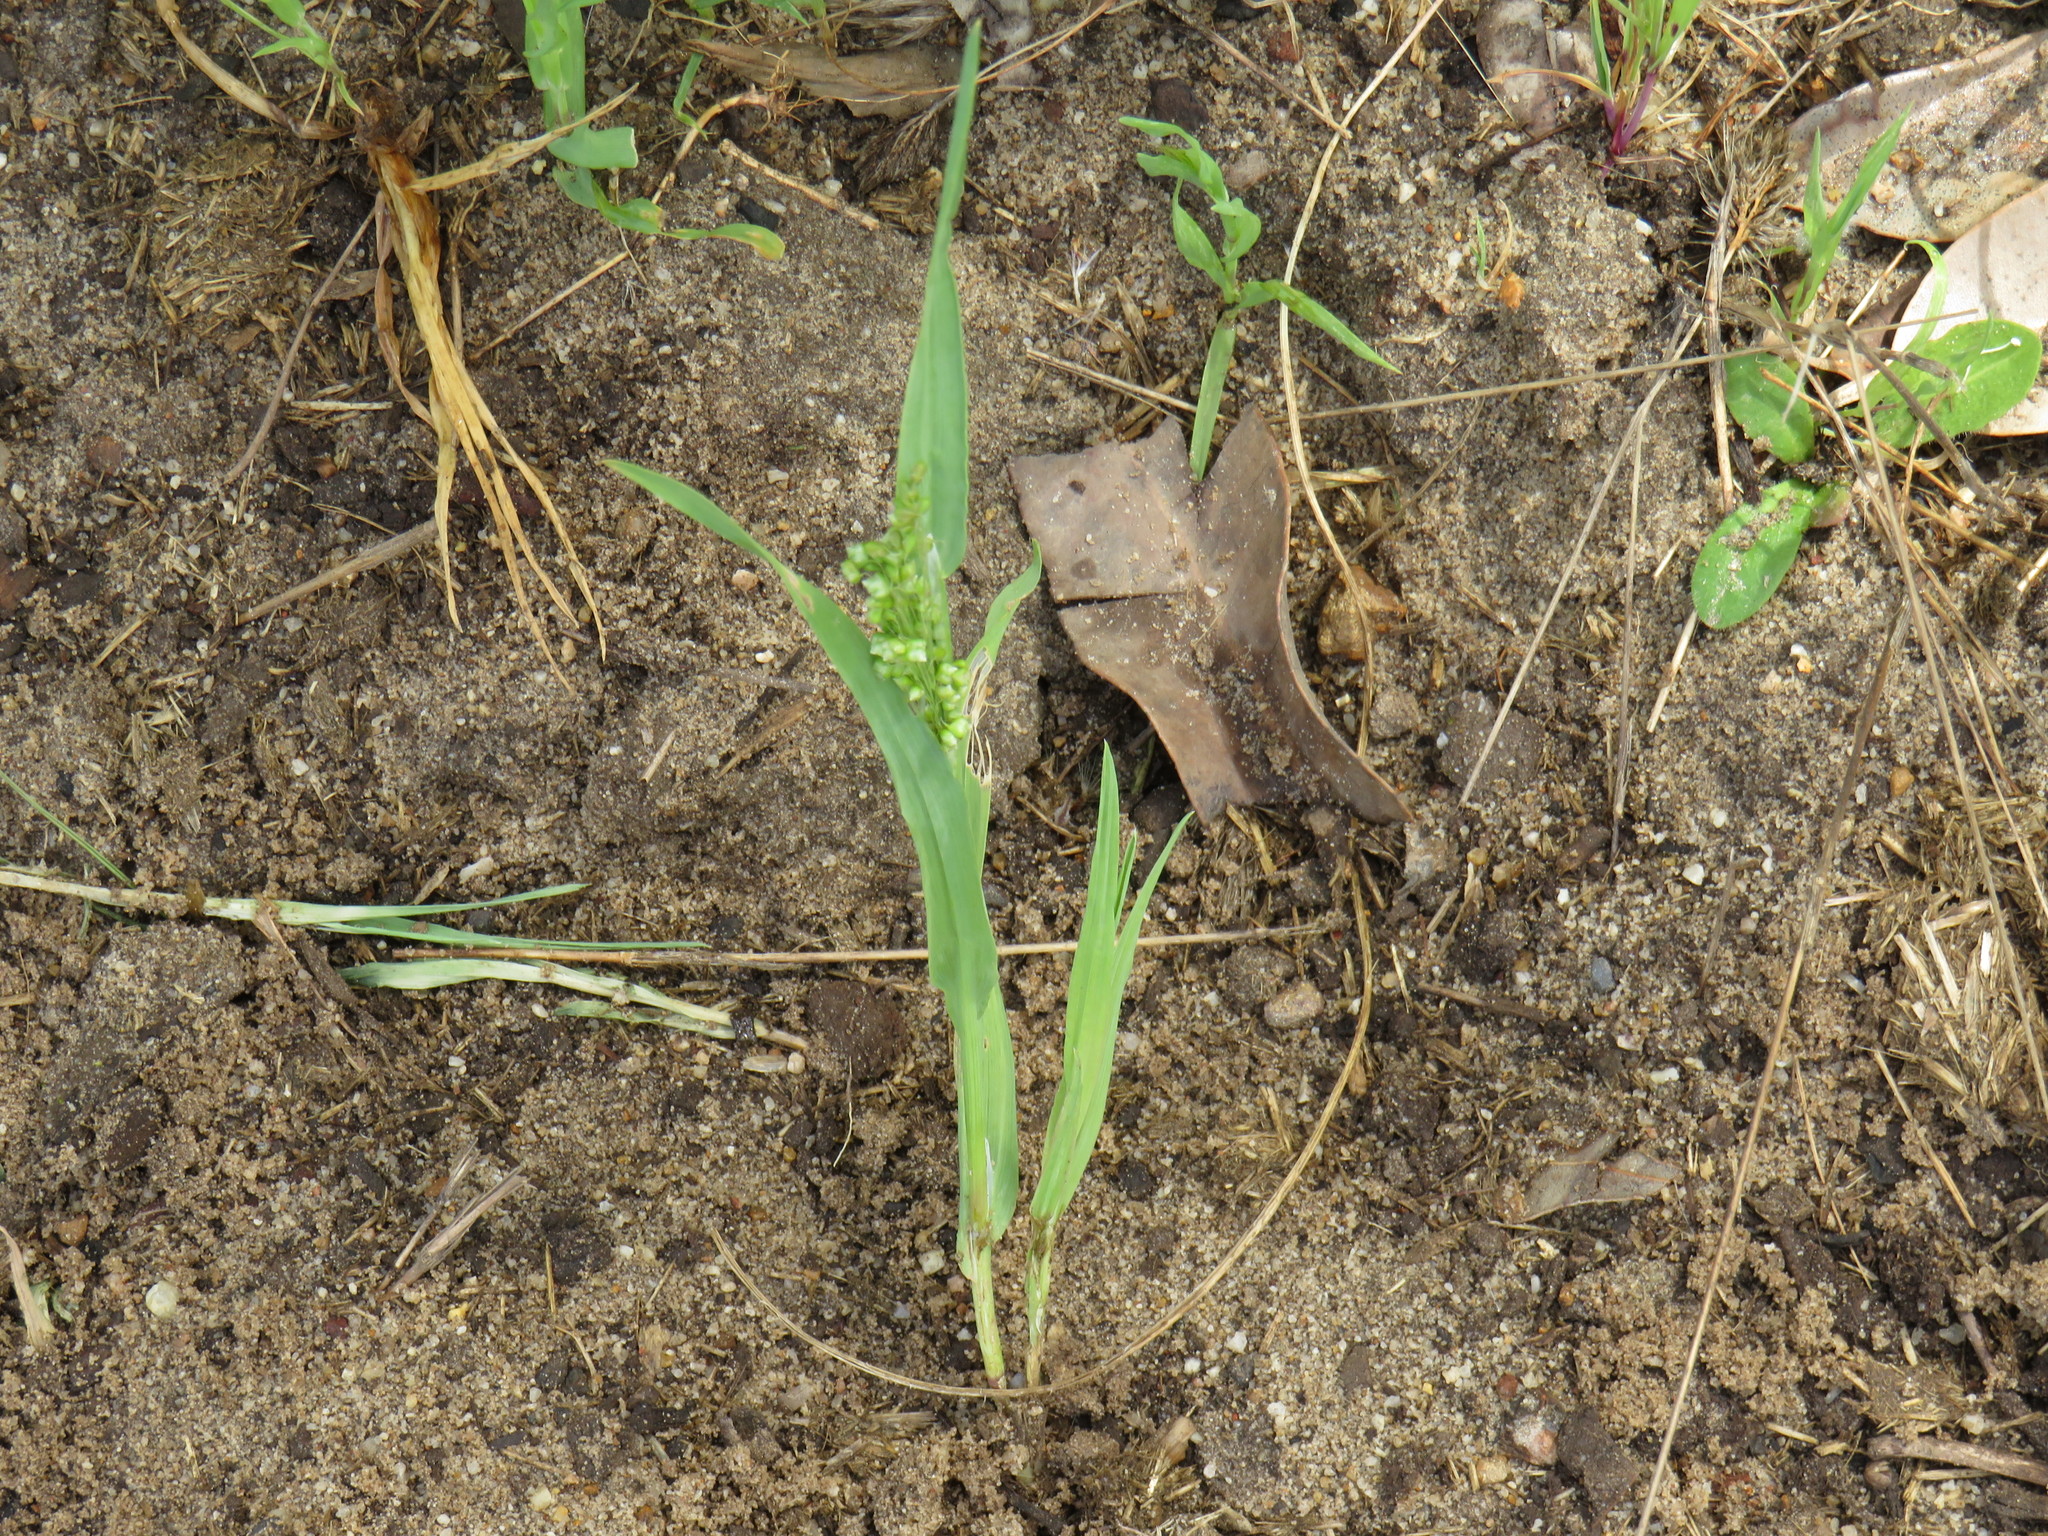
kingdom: Plantae
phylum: Tracheophyta
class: Liliopsida
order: Poales
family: Poaceae
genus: Briza
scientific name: Briza minor
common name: Lesser quaking-grass
